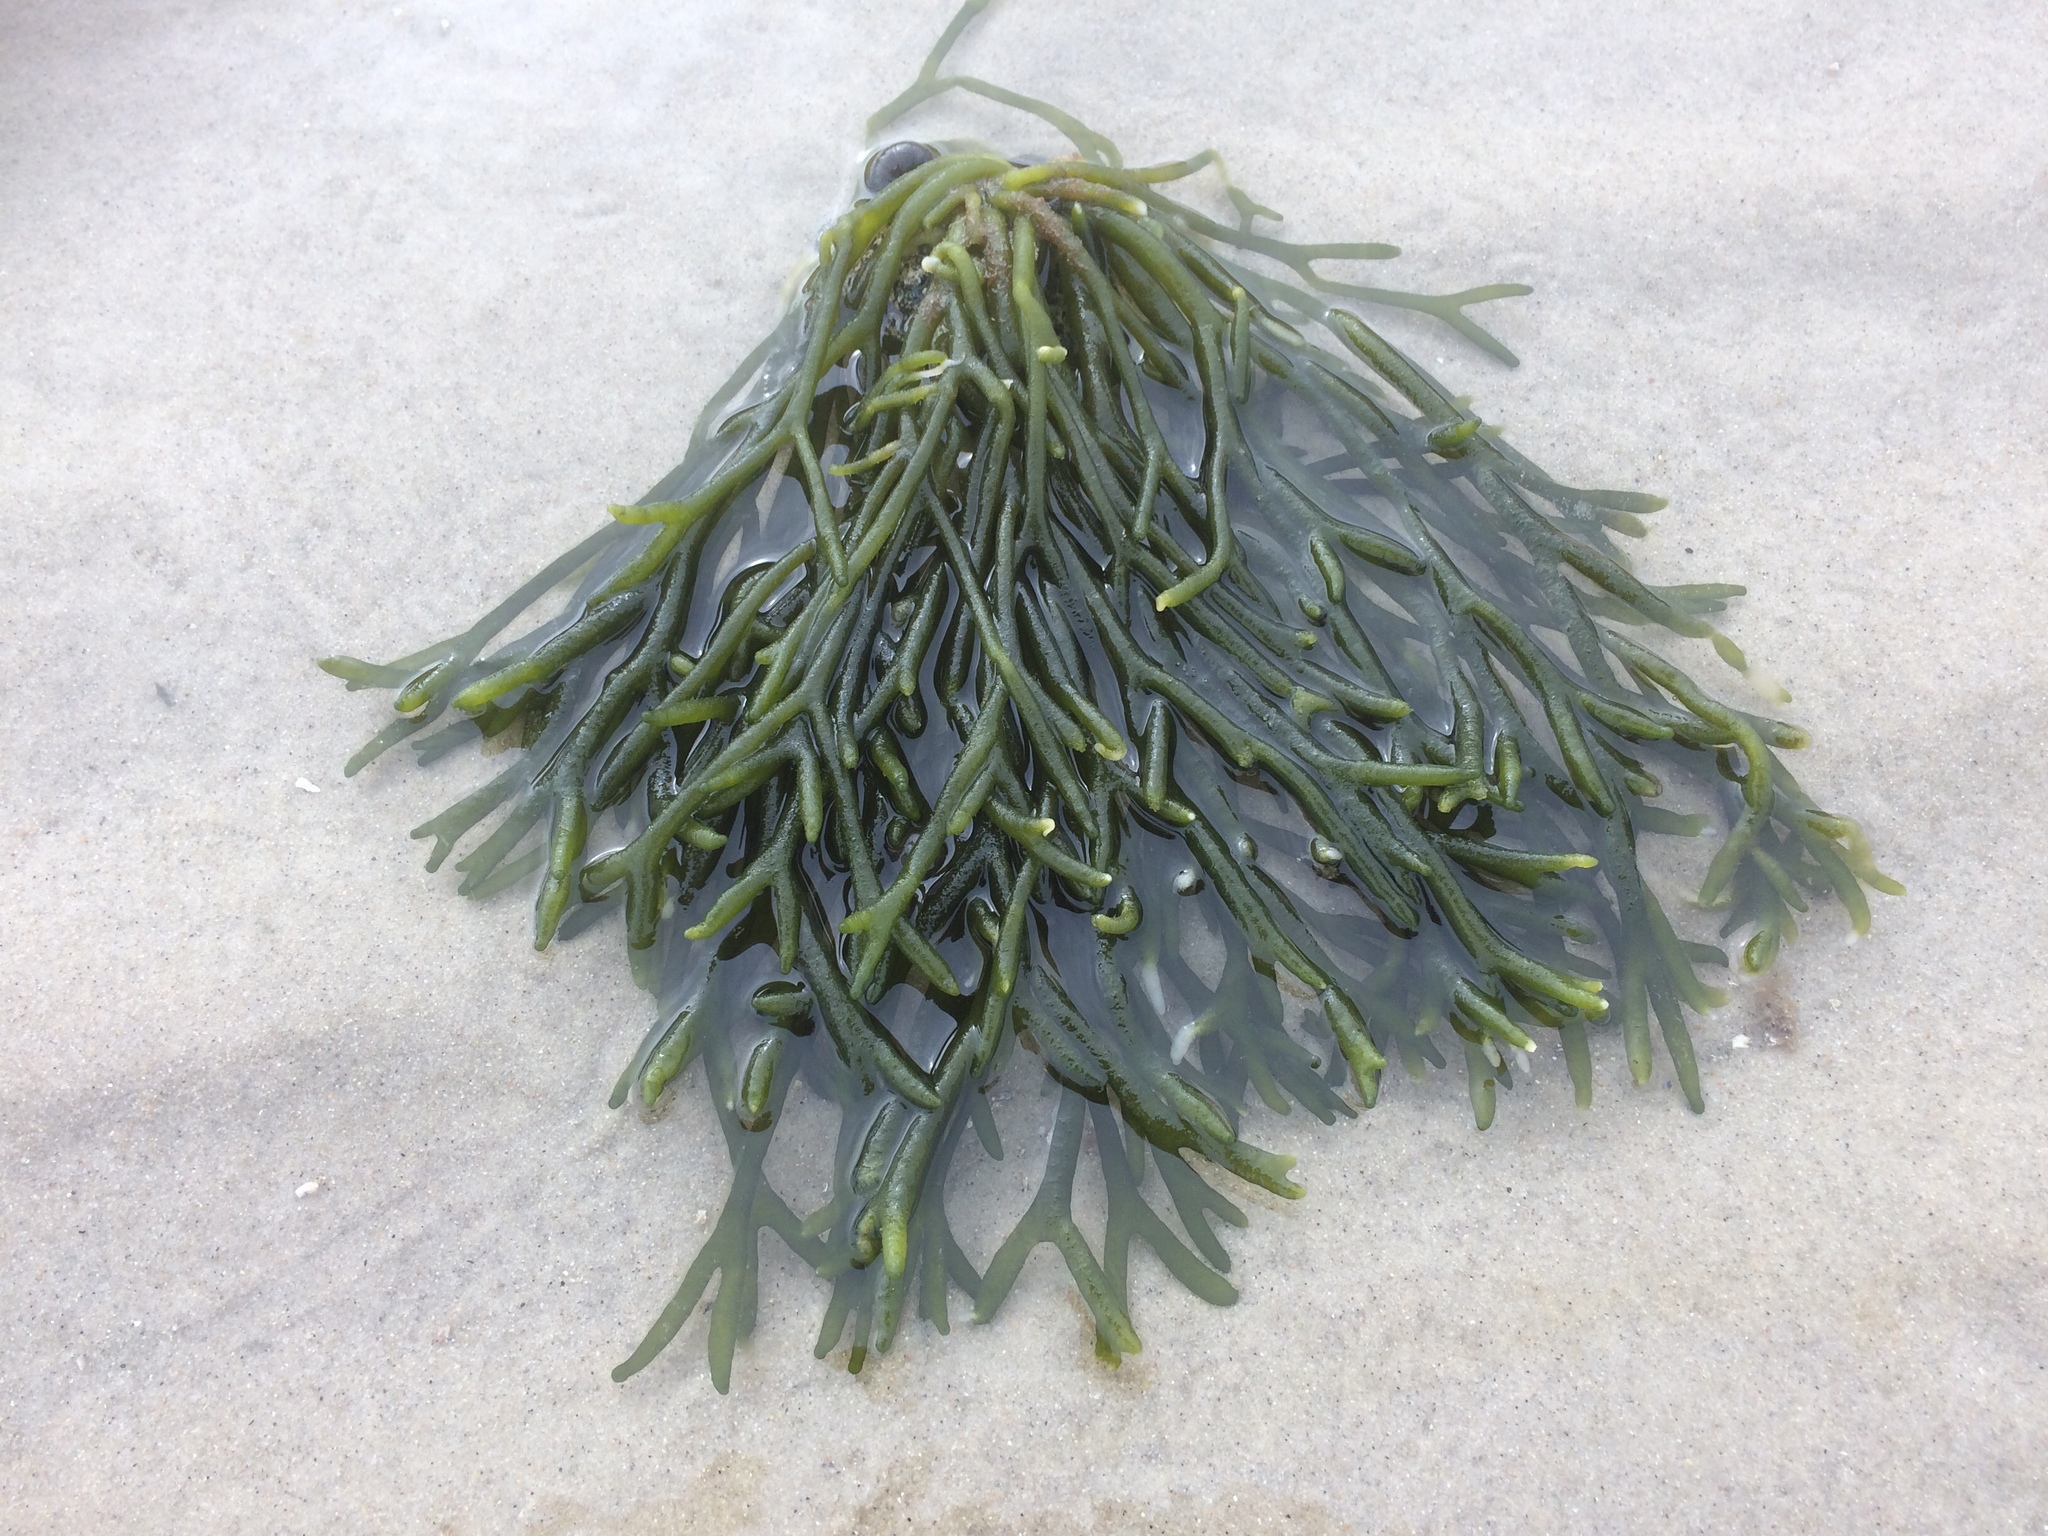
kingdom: Plantae
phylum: Chlorophyta
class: Ulvophyceae
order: Bryopsidales
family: Codiaceae
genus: Codium
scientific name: Codium fragile
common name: Dead man's fingers
